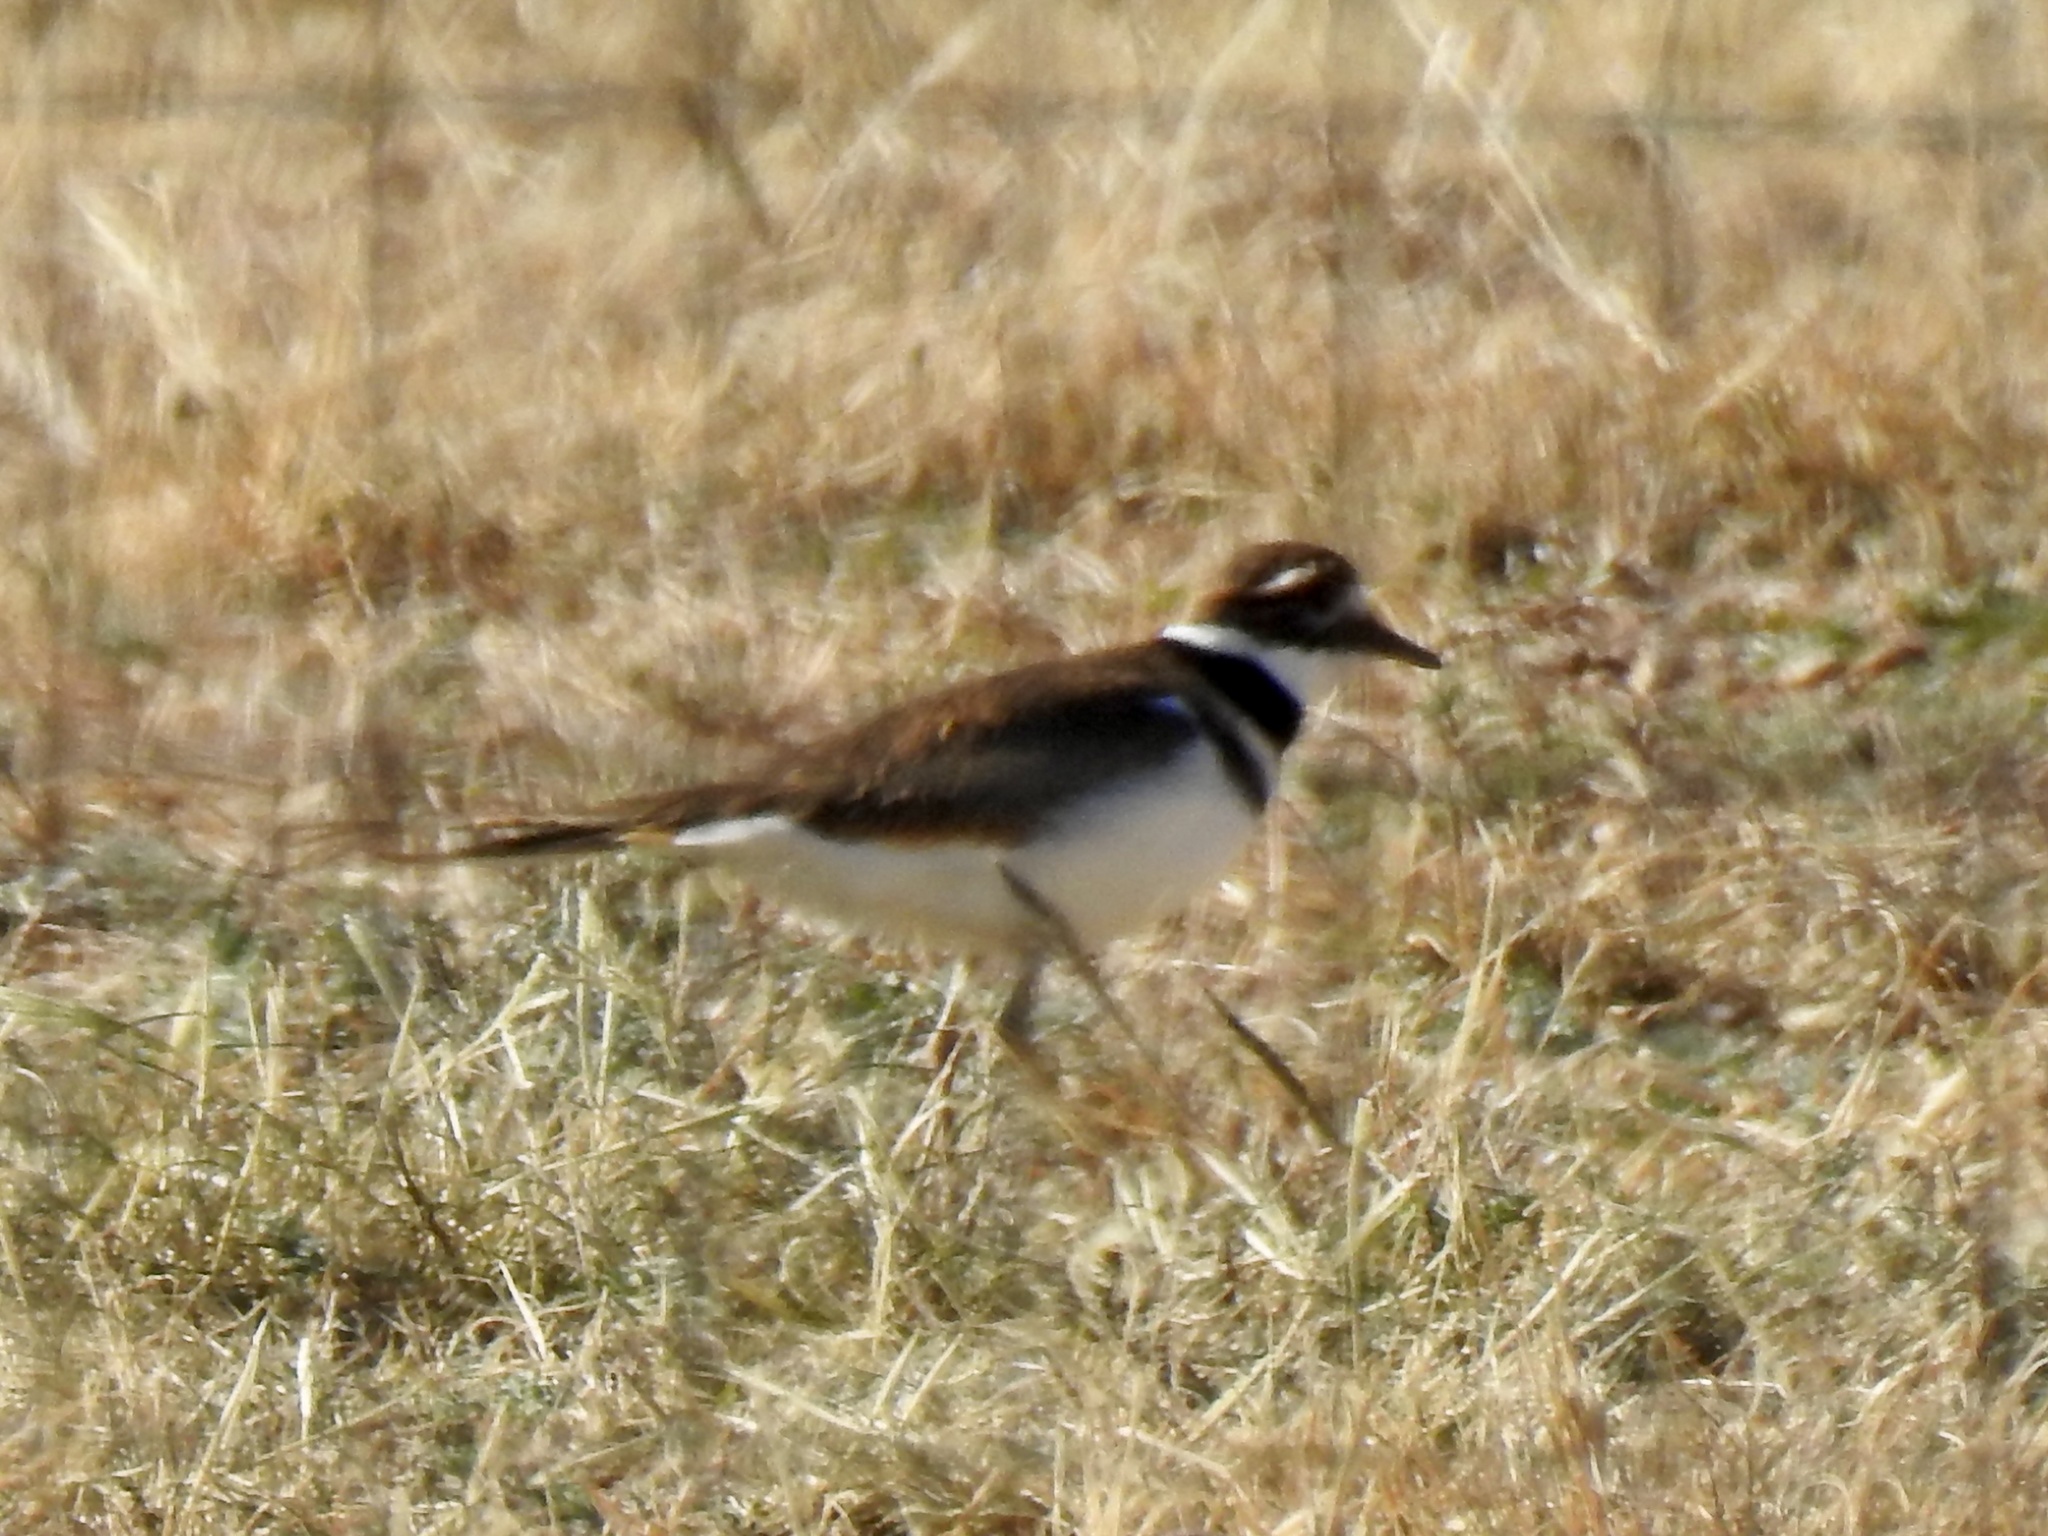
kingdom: Animalia
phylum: Chordata
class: Aves
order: Charadriiformes
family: Charadriidae
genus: Charadrius
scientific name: Charadrius vociferus
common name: Killdeer
